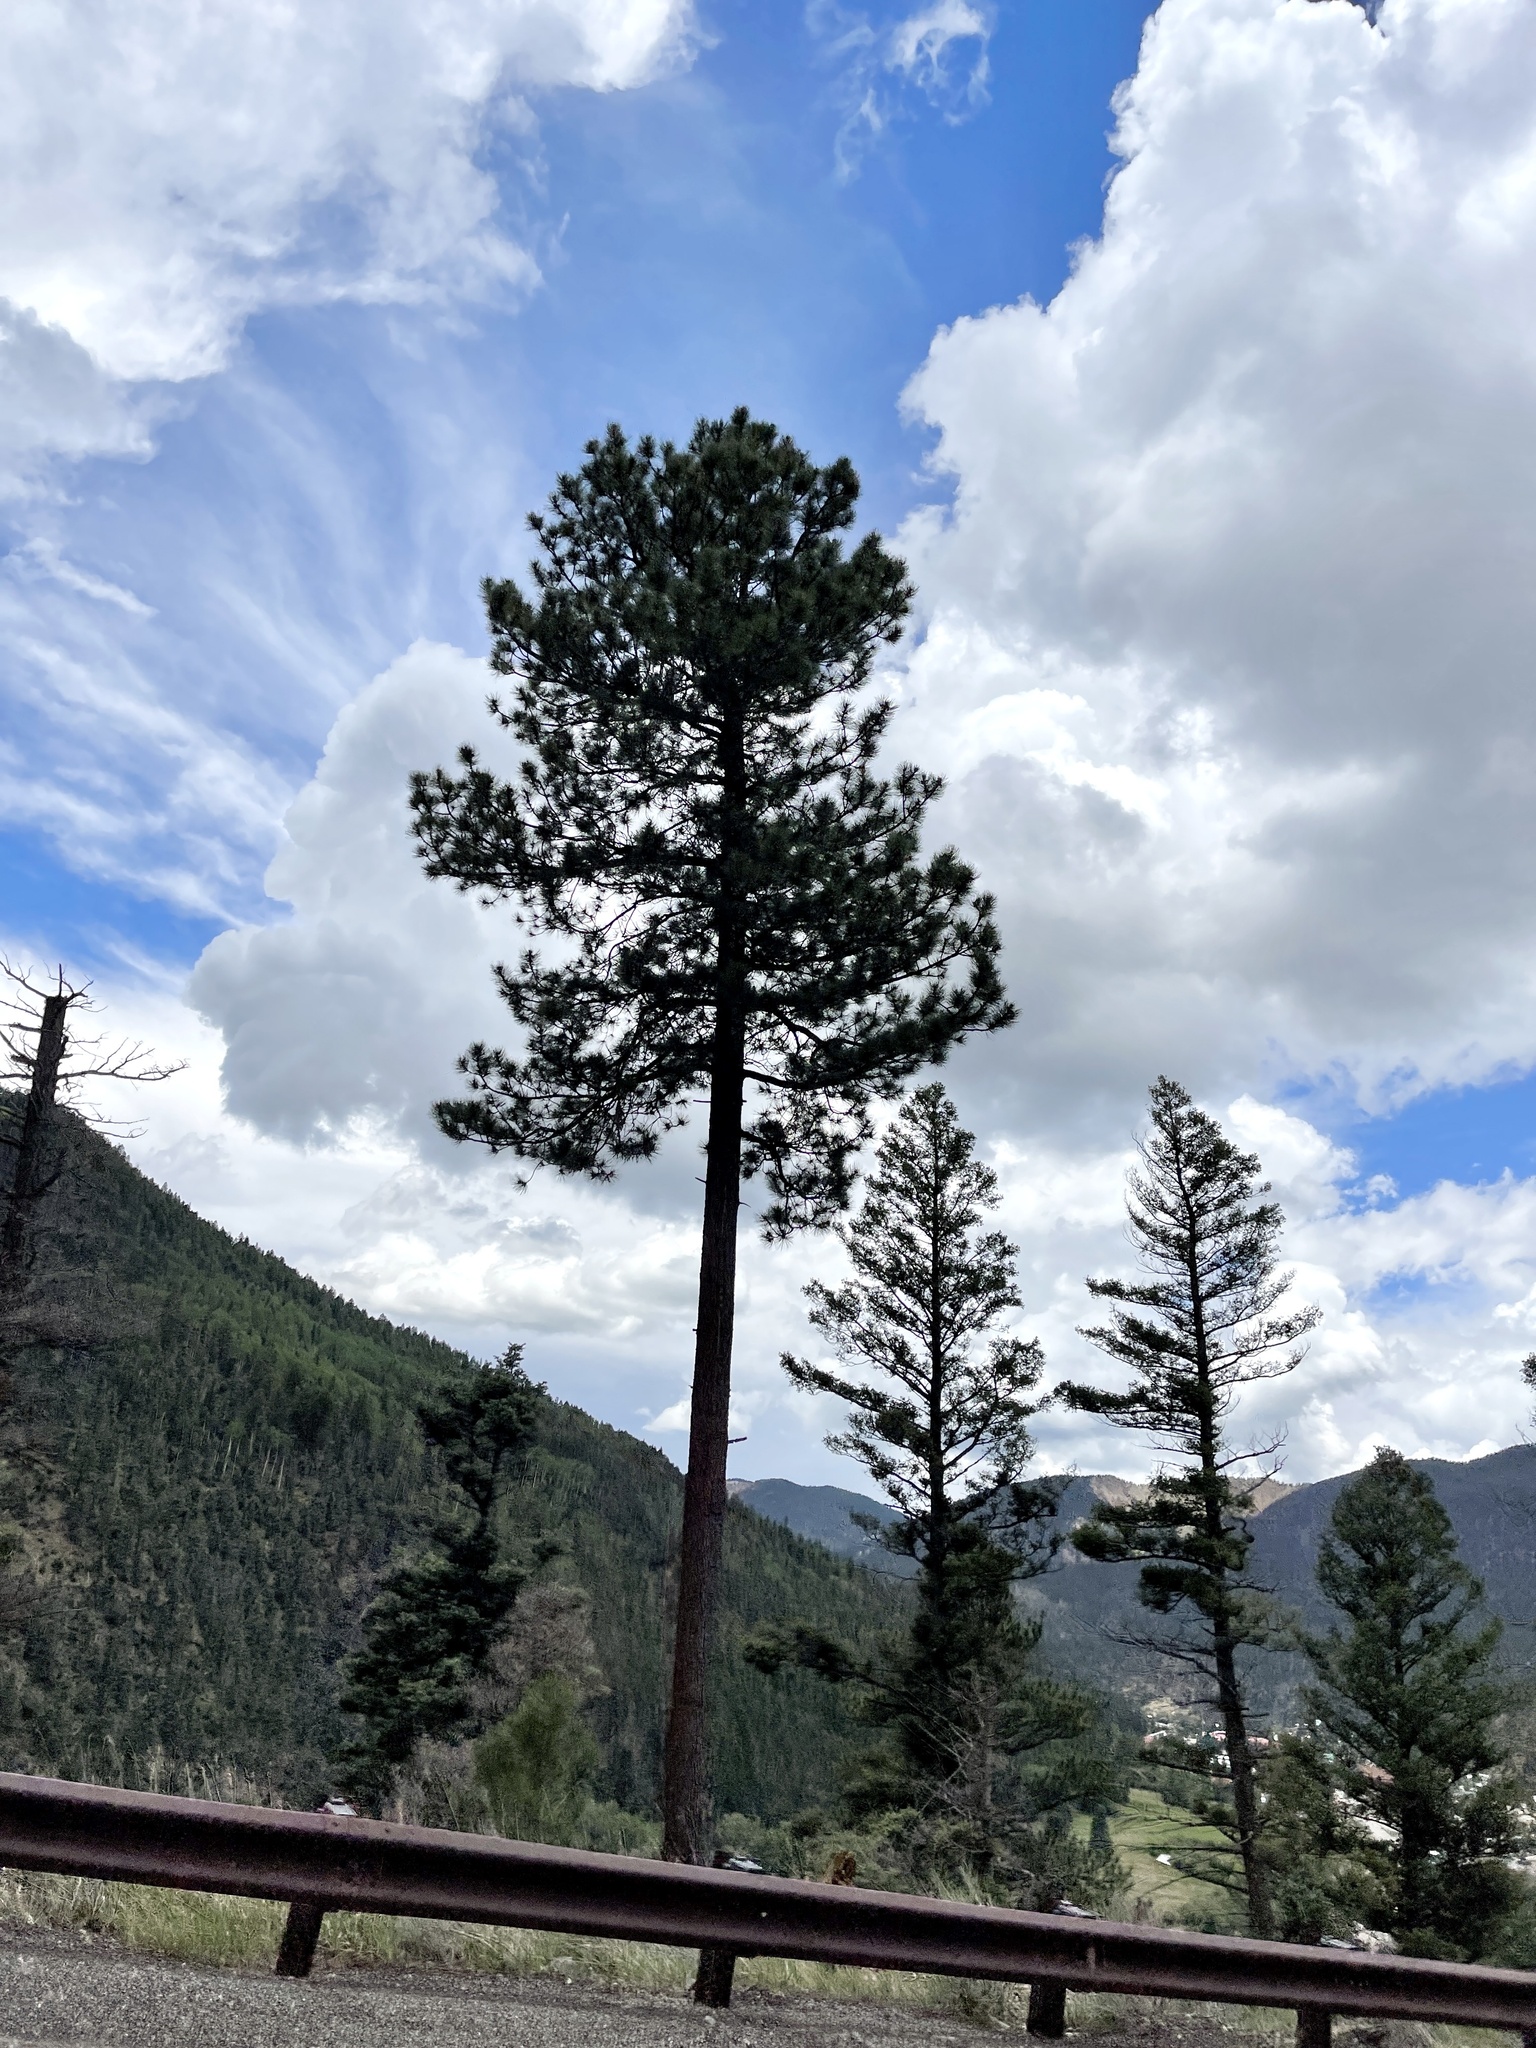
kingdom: Plantae
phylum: Tracheophyta
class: Pinopsida
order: Pinales
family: Pinaceae
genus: Pinus
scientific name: Pinus ponderosa
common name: Western yellow-pine
